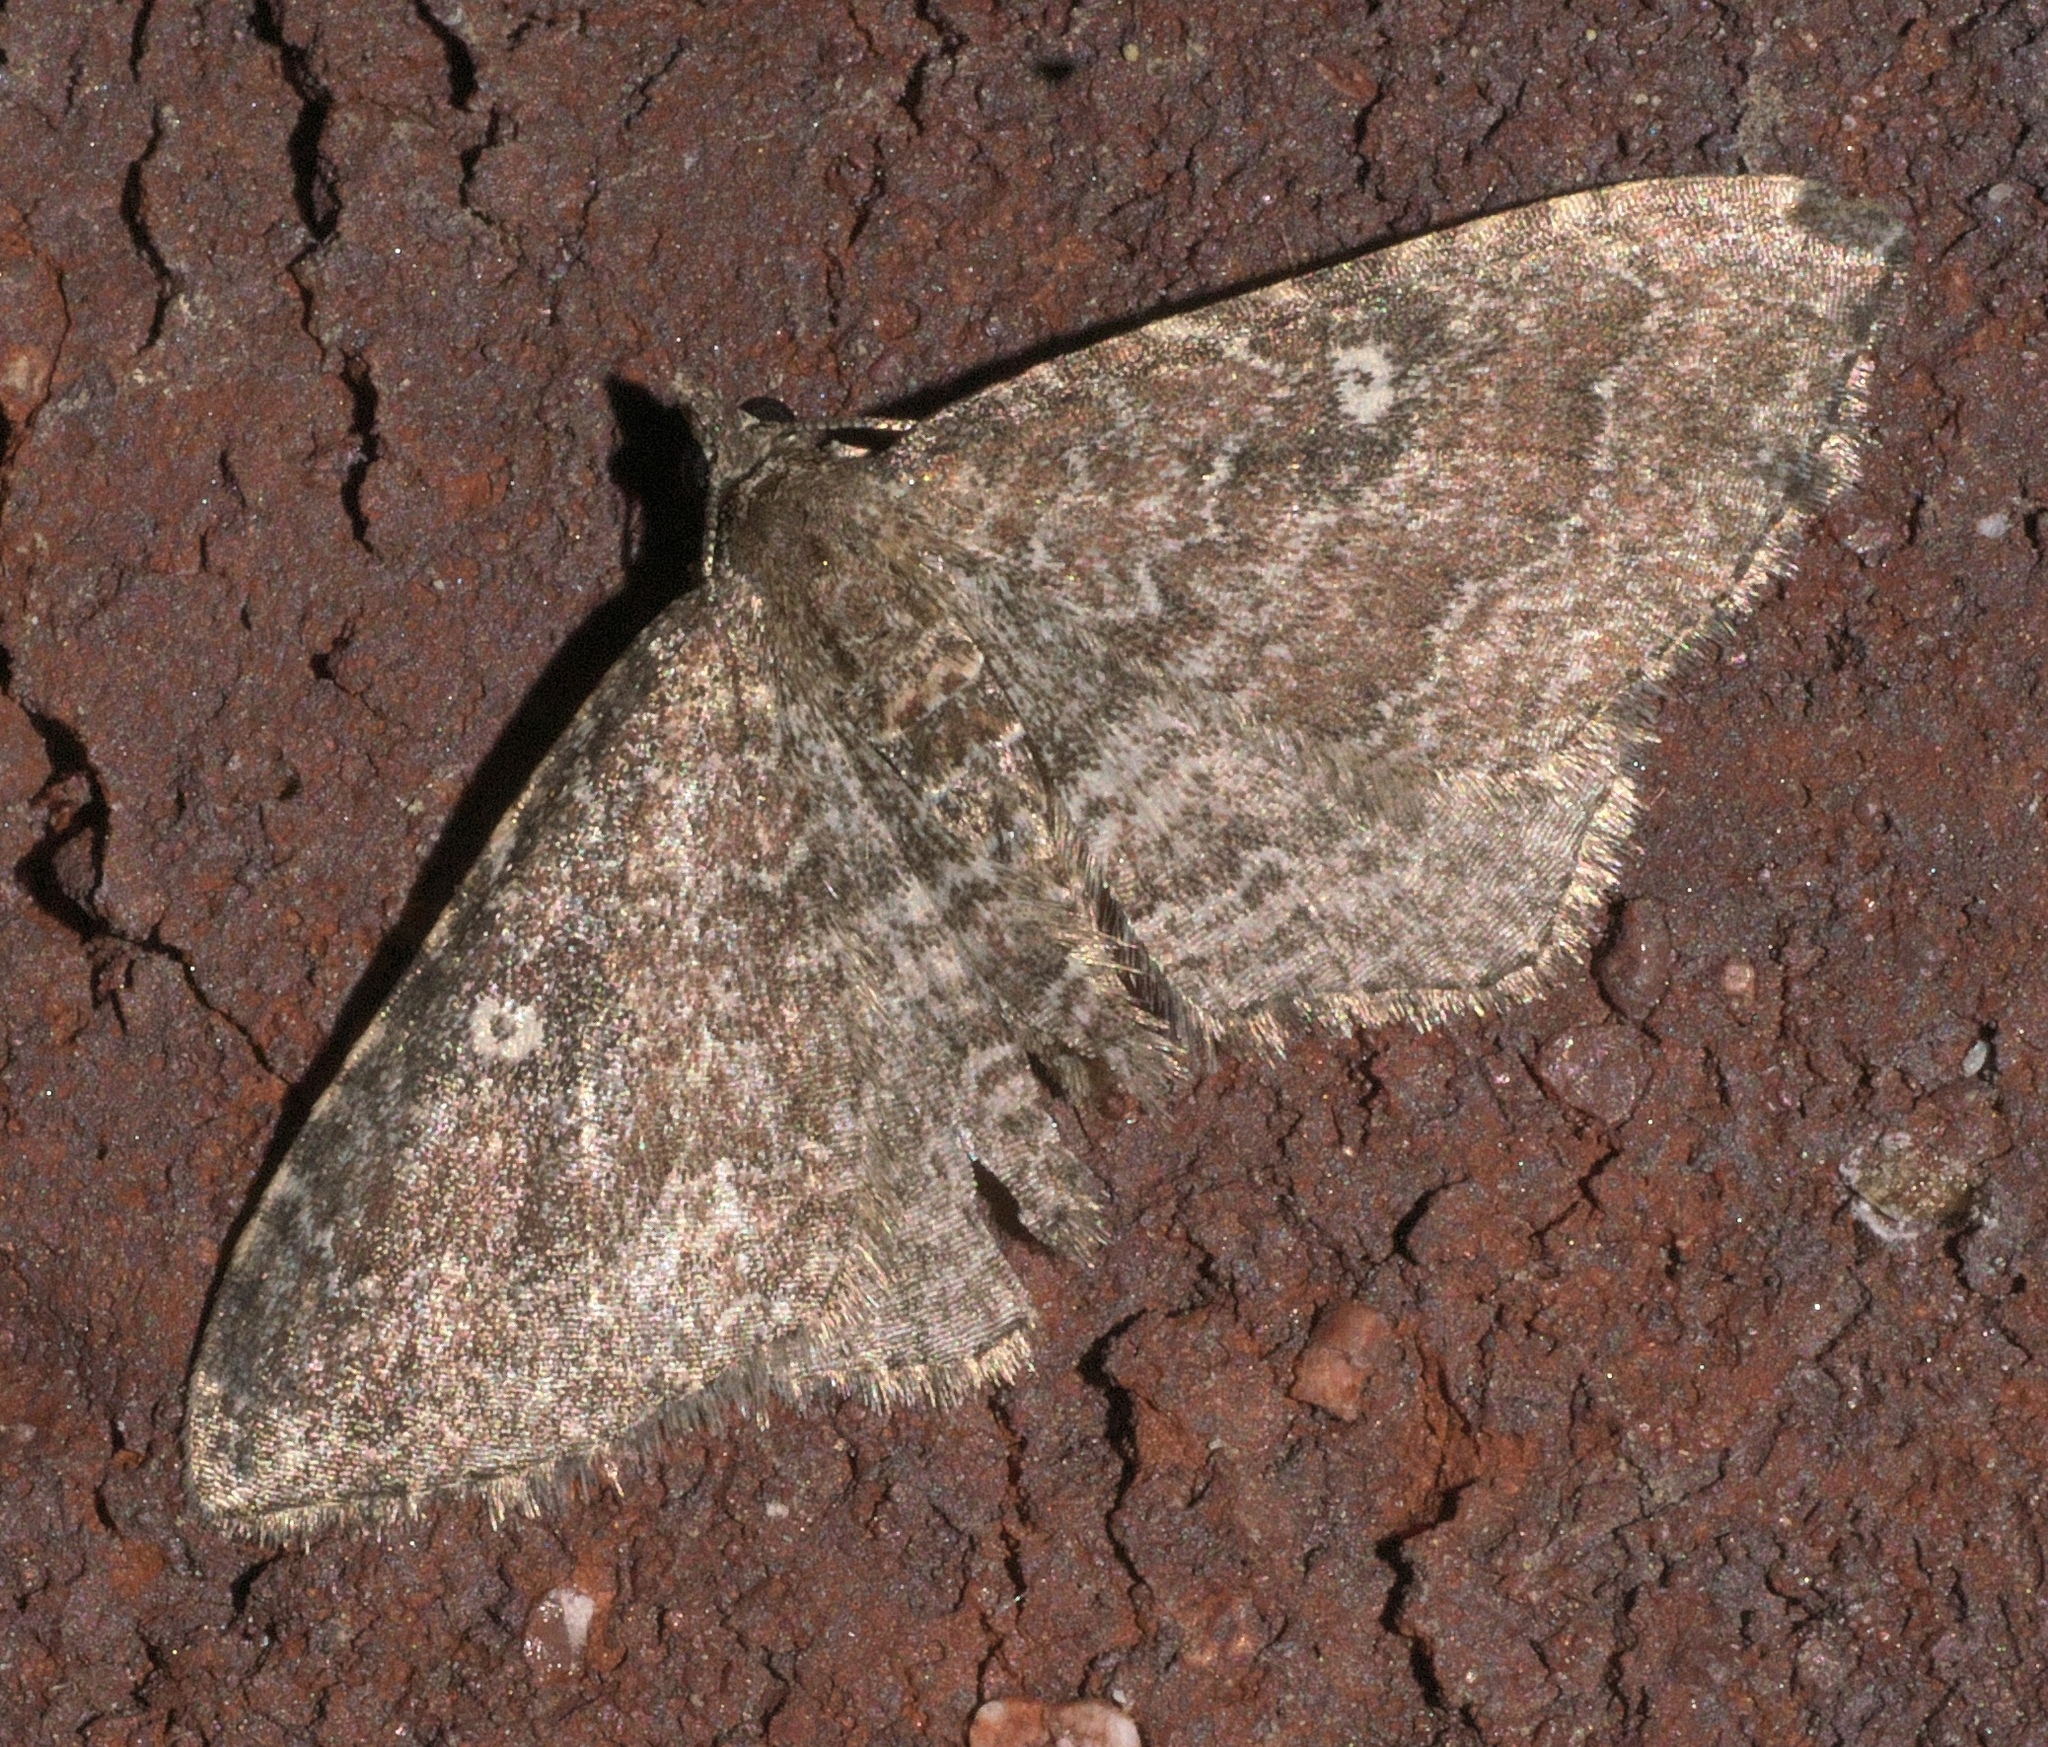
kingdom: Animalia
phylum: Arthropoda
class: Insecta
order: Lepidoptera
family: Geometridae
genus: Orthonama
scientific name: Orthonama obstipata
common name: The gem
